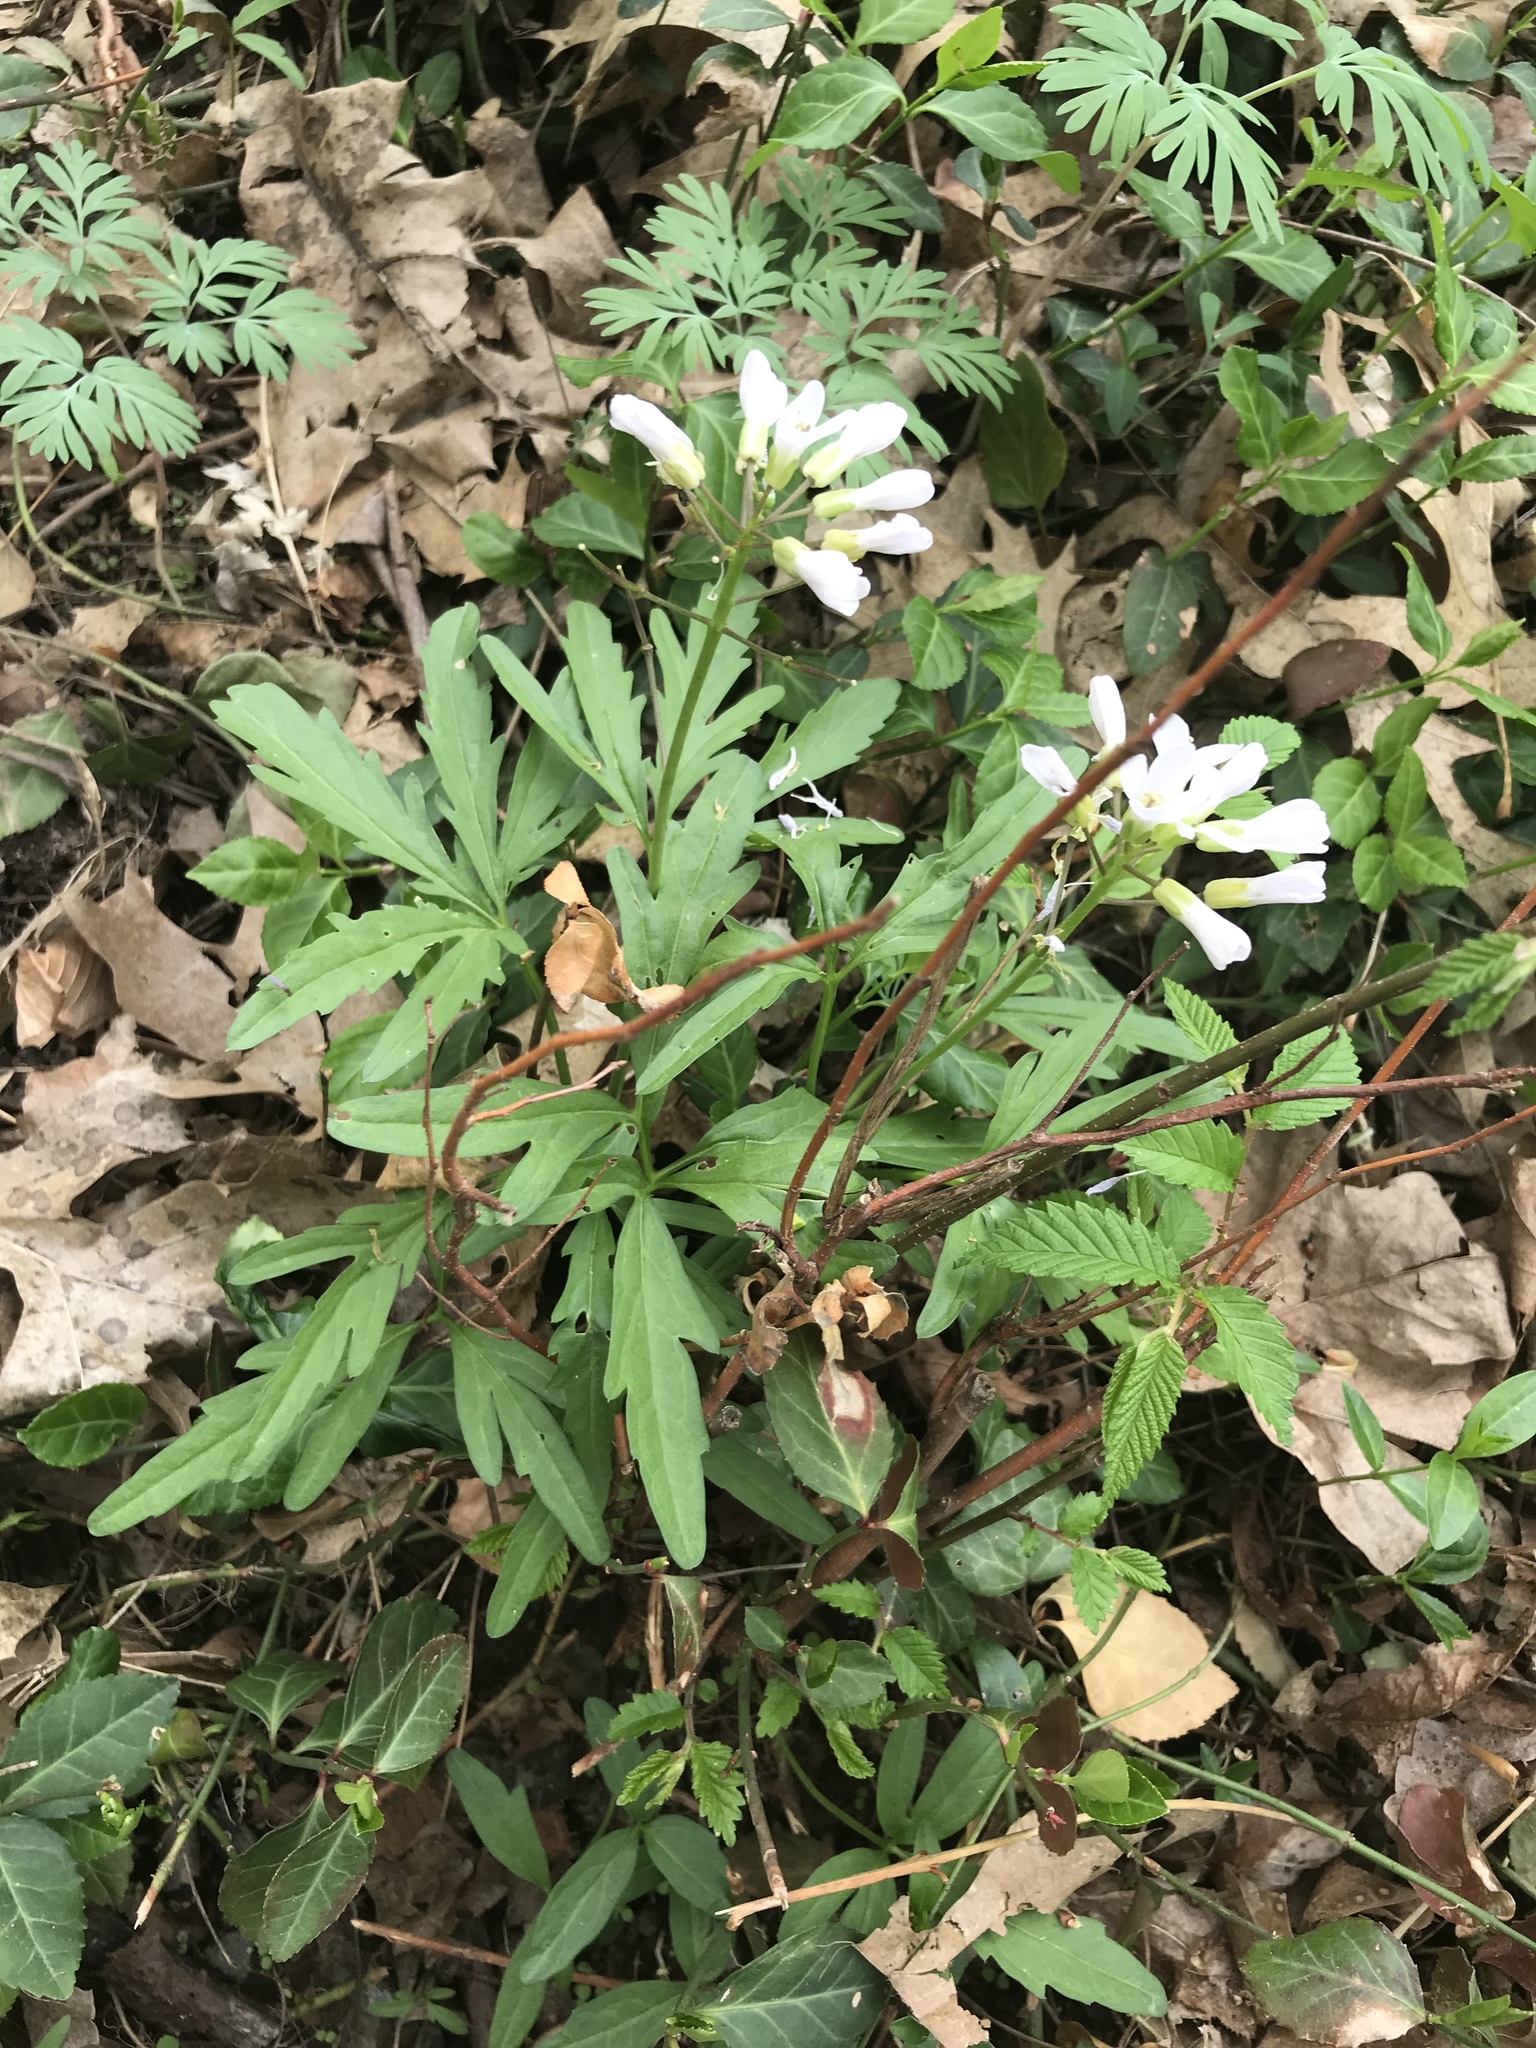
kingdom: Plantae
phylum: Tracheophyta
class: Magnoliopsida
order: Brassicales
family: Brassicaceae
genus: Cardamine
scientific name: Cardamine concatenata
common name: Cut-leaf toothcup
